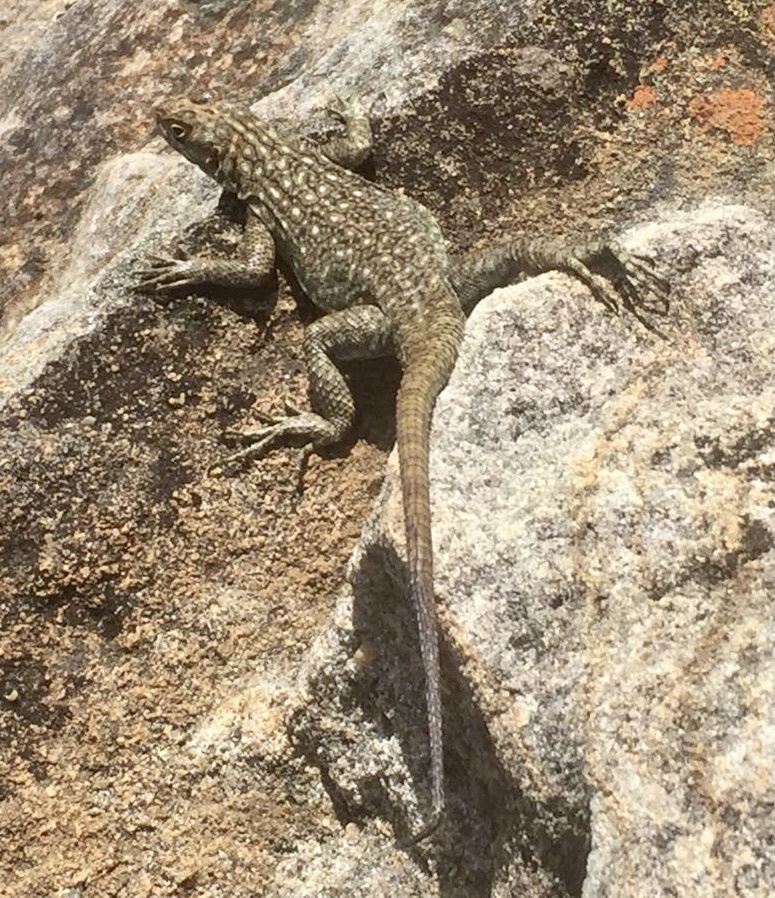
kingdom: Animalia
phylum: Chordata
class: Squamata
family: Opluridae
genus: Oplurus
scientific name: Oplurus quadrimaculatus
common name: Duméril's madagascar swift
